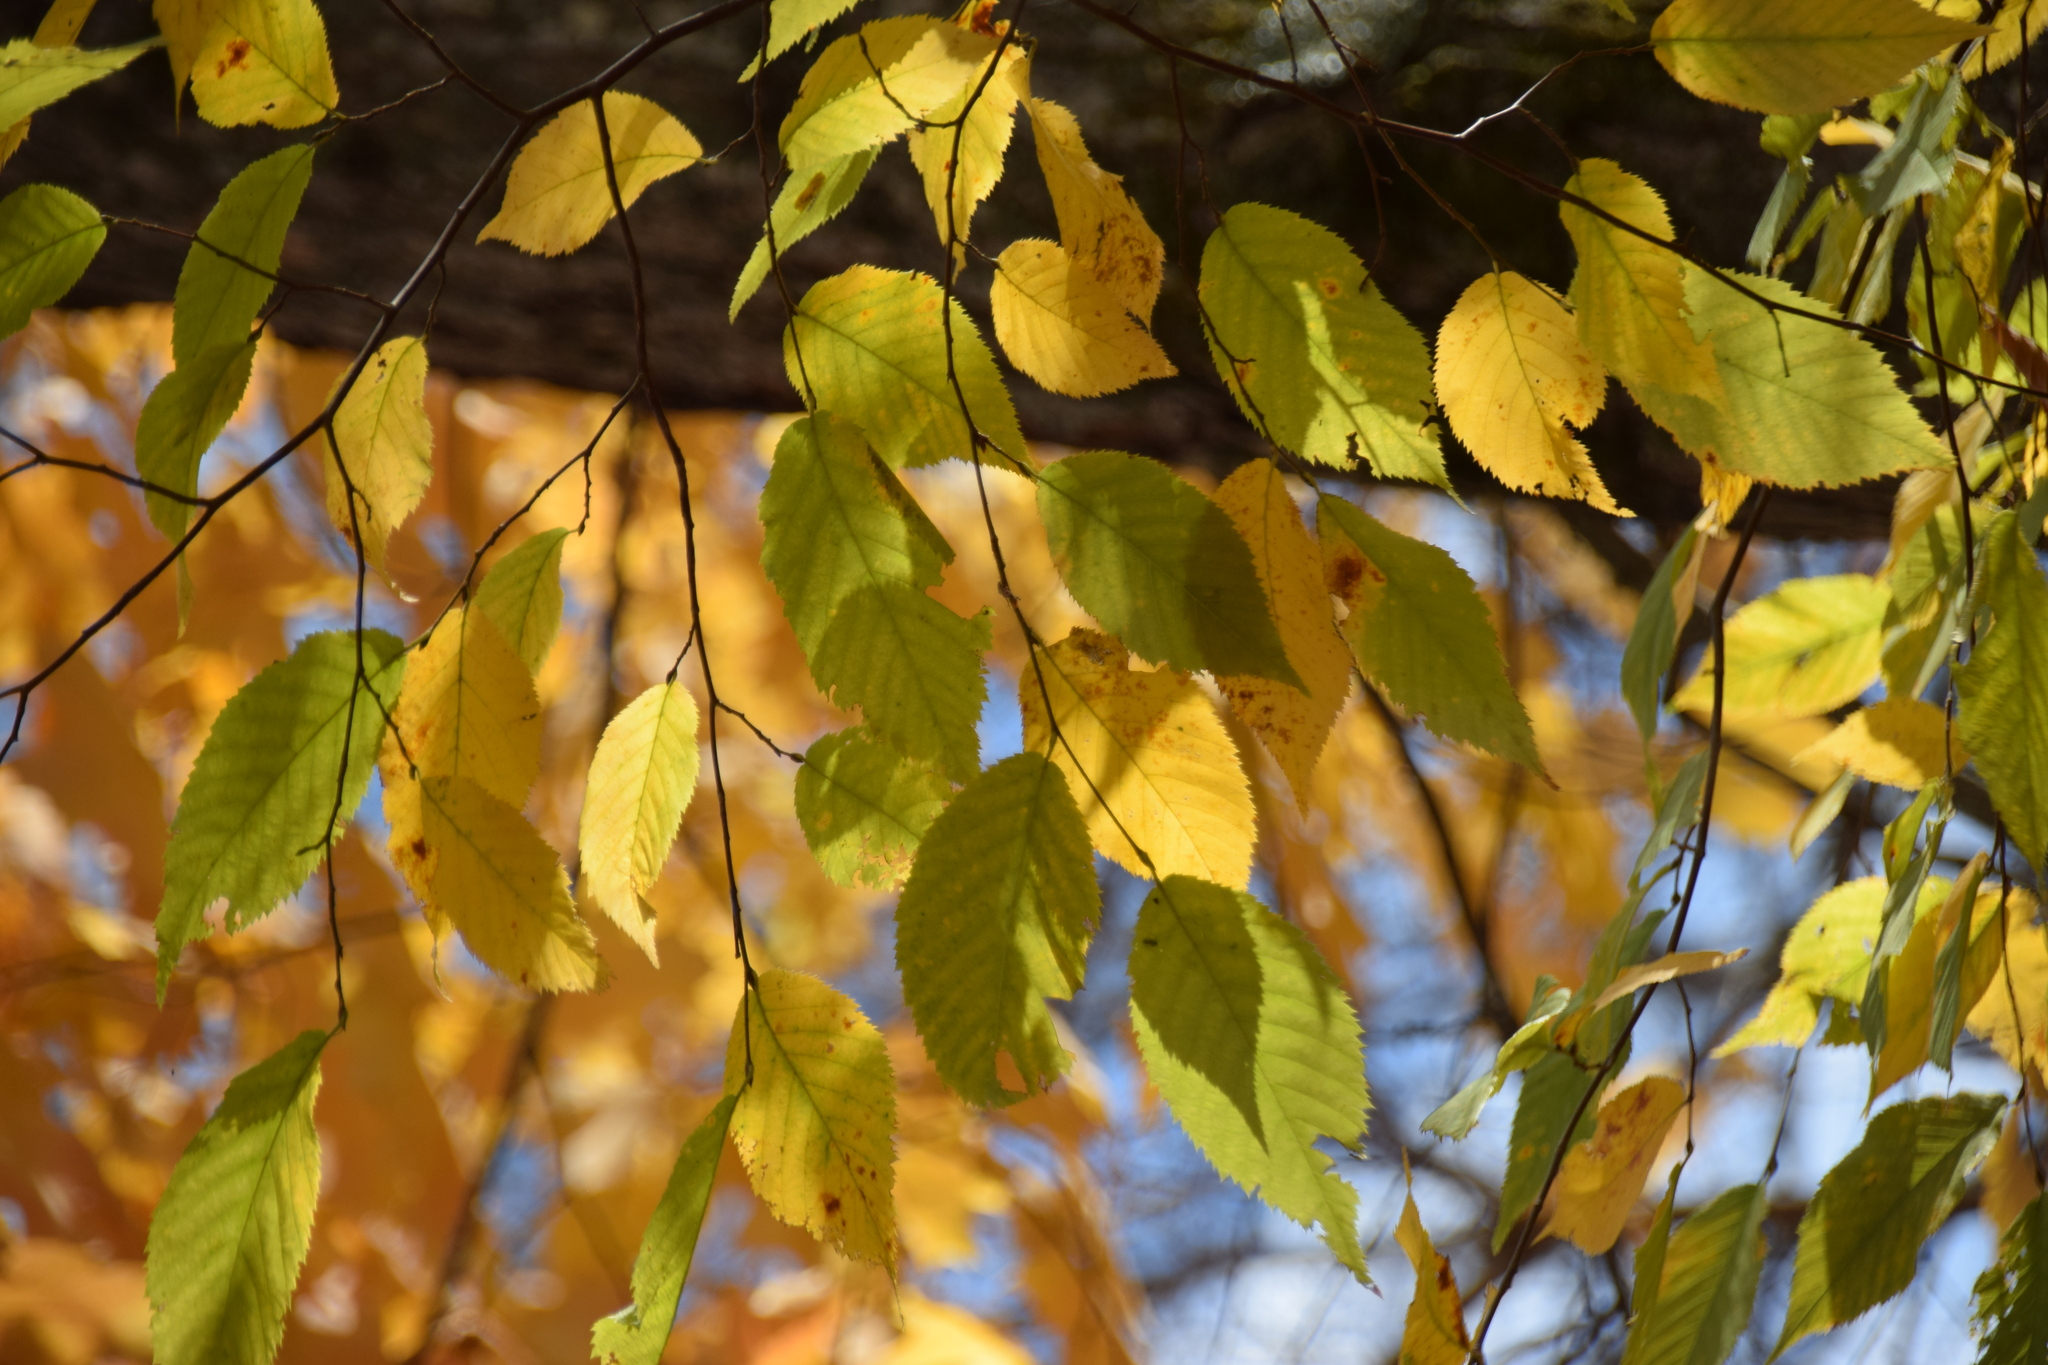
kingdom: Plantae
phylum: Tracheophyta
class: Magnoliopsida
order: Fagales
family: Betulaceae
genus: Ostrya
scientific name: Ostrya virginiana
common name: Ironwood
